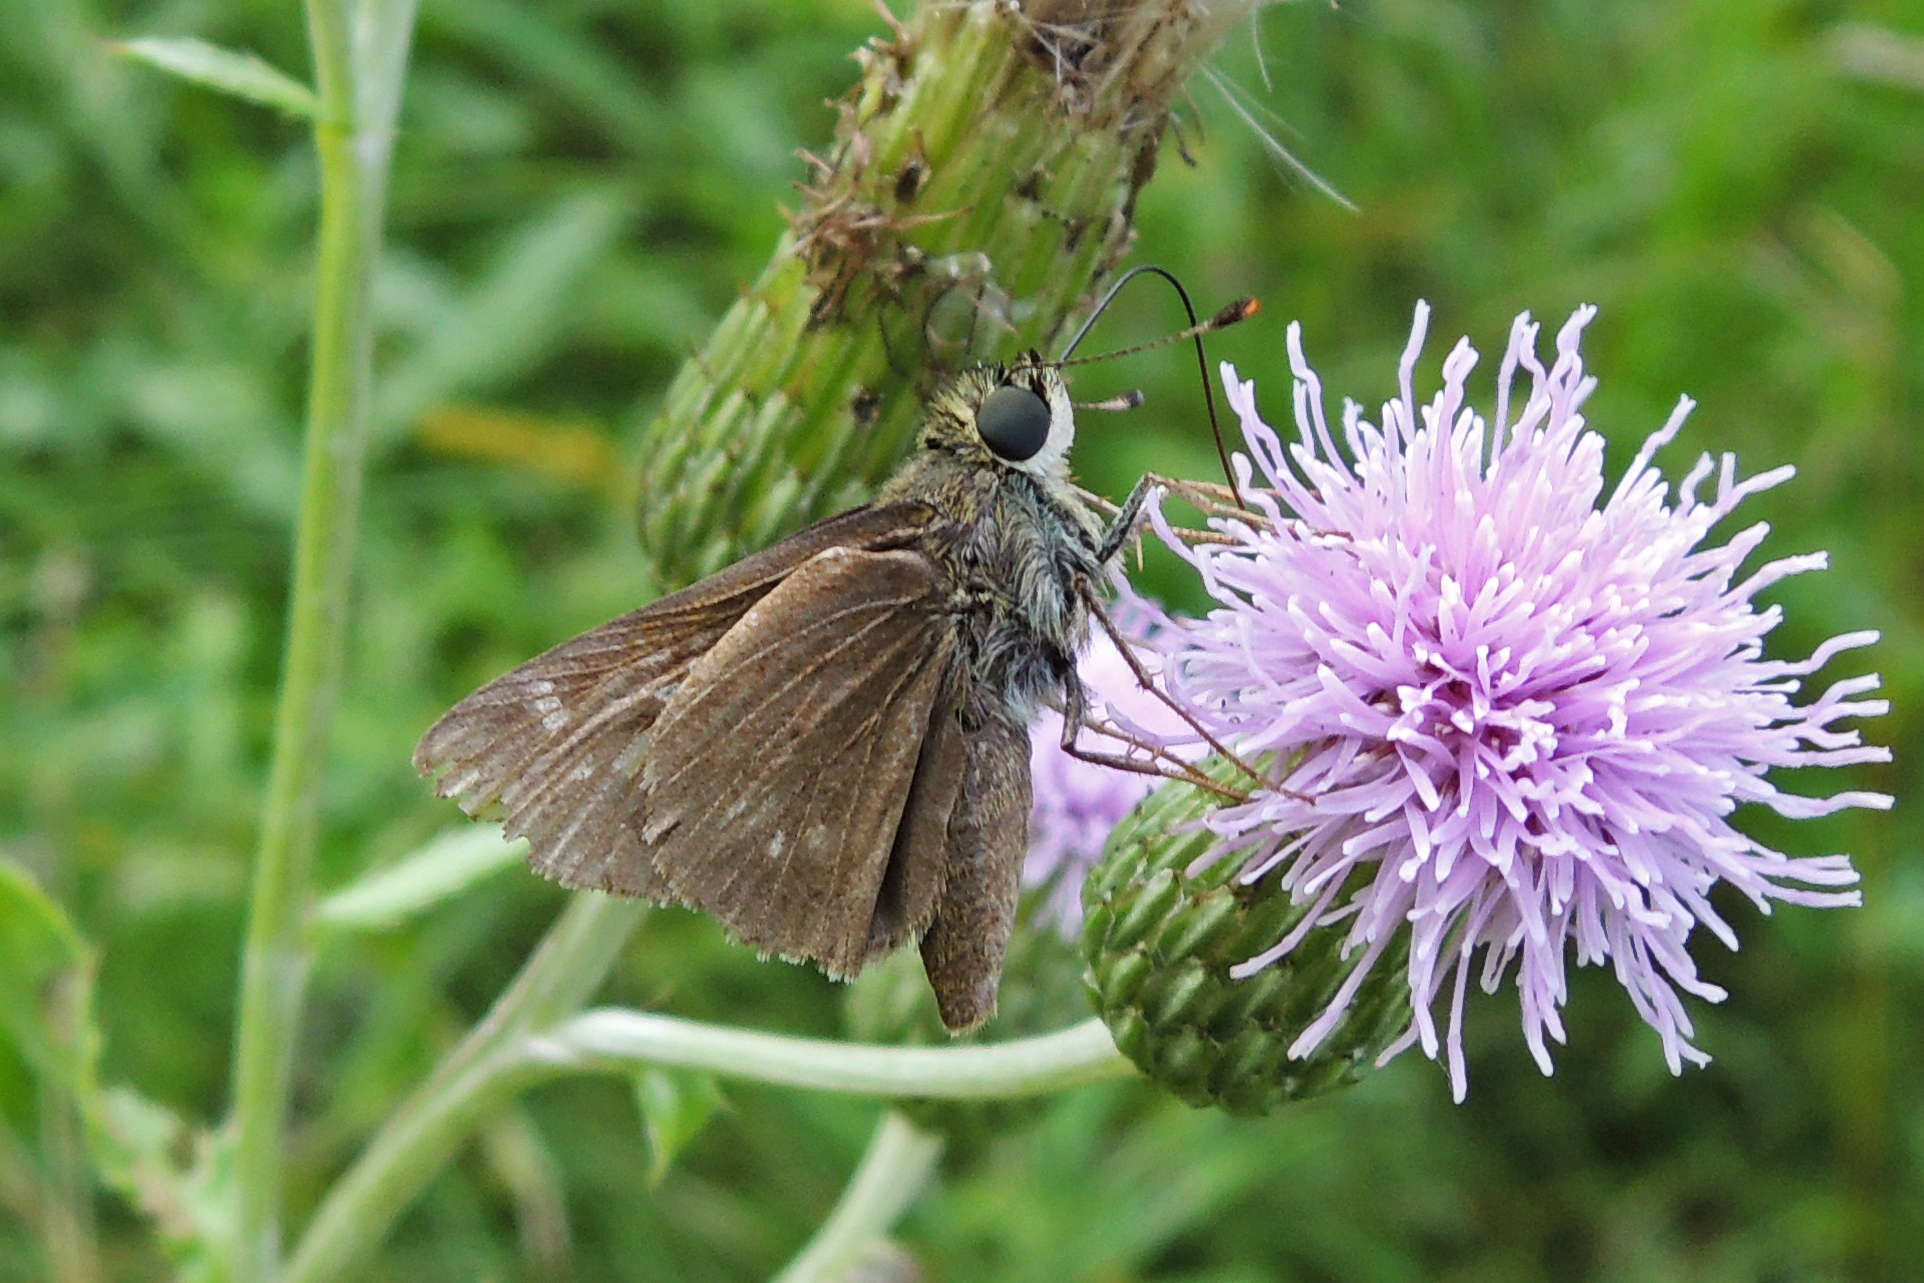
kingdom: Animalia
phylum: Arthropoda
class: Insecta
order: Lepidoptera
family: Hesperiidae
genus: Vernia
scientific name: Vernia verna
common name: Little glassywing
